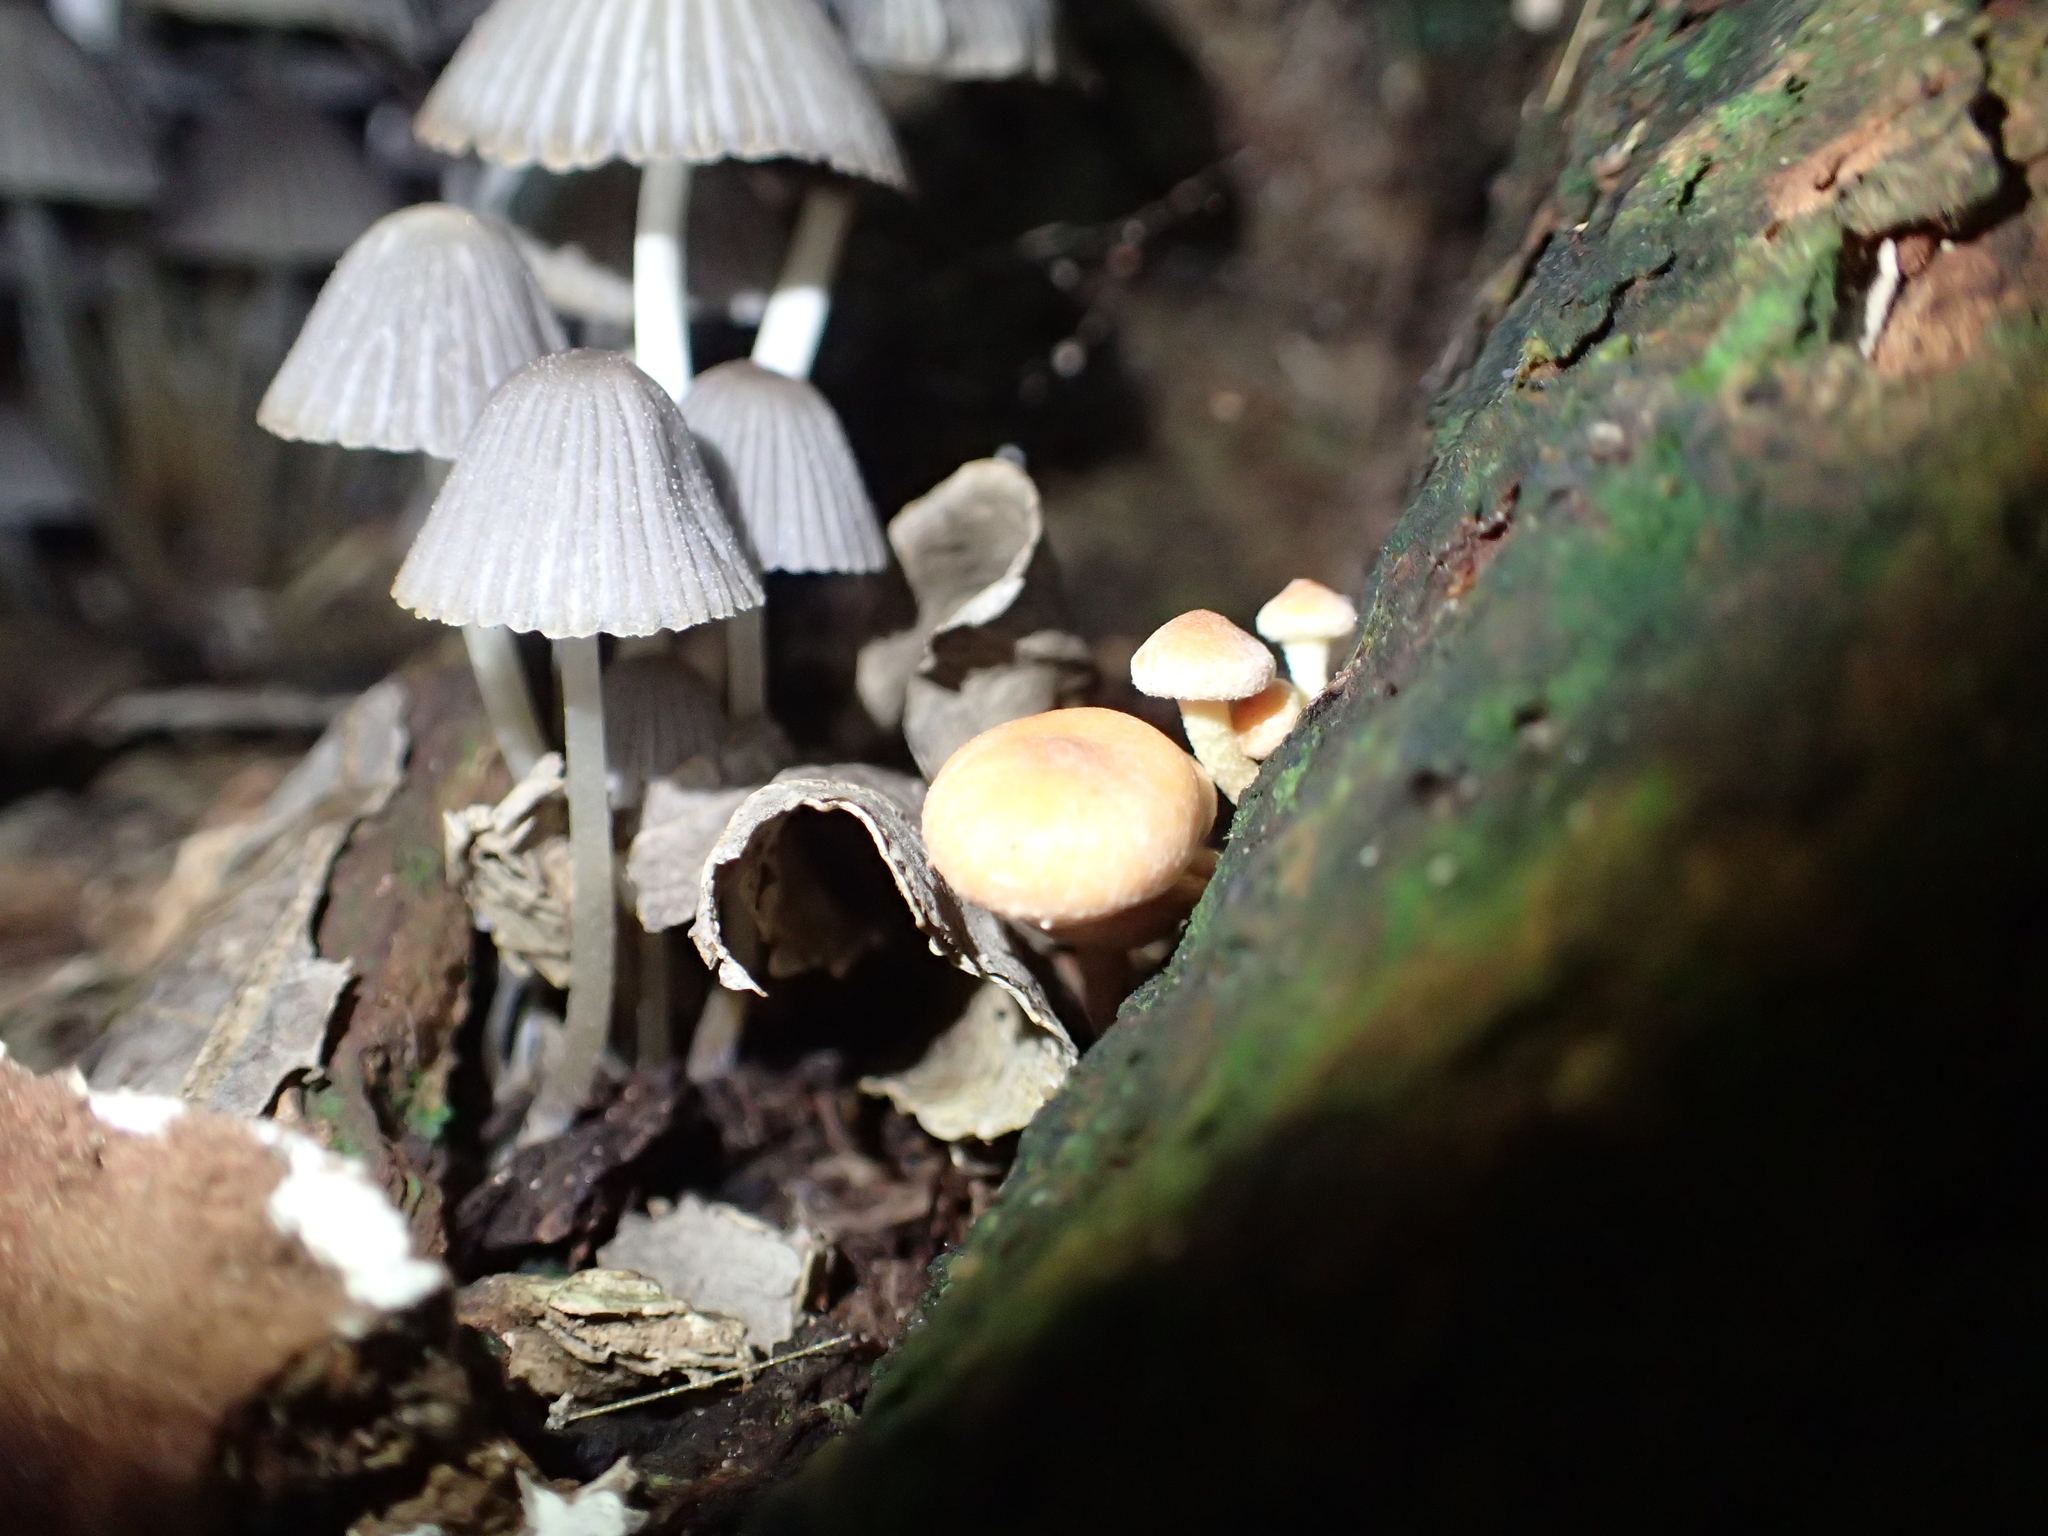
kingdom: Fungi
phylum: Basidiomycota
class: Agaricomycetes
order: Agaricales
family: Strophariaceae
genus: Hypholoma
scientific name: Hypholoma acutum
